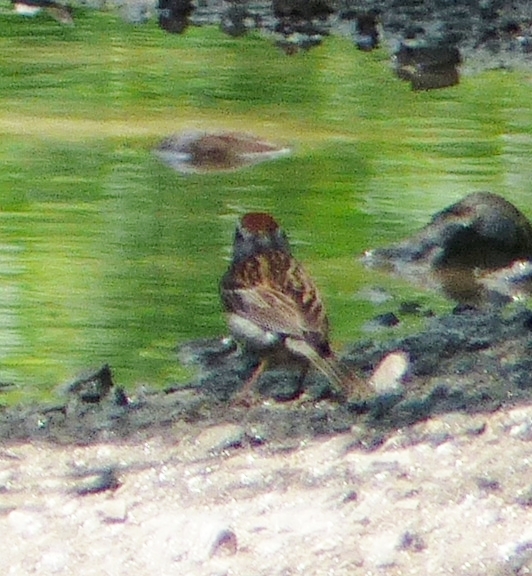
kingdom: Animalia
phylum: Chordata
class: Aves
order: Passeriformes
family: Passerellidae
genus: Spizella
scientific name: Spizella passerina
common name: Chipping sparrow
